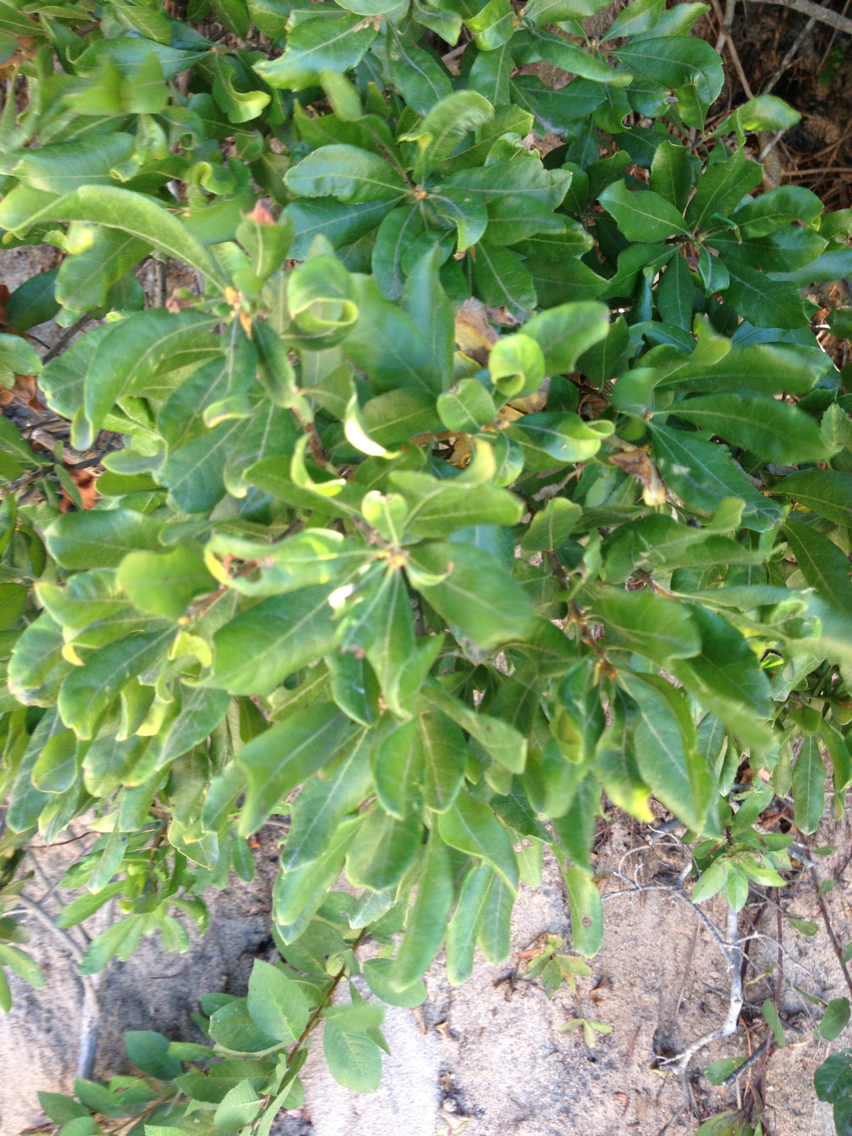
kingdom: Plantae
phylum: Tracheophyta
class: Magnoliopsida
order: Fagales
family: Myricaceae
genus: Morella
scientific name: Morella pensylvanica
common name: Northern bayberry
